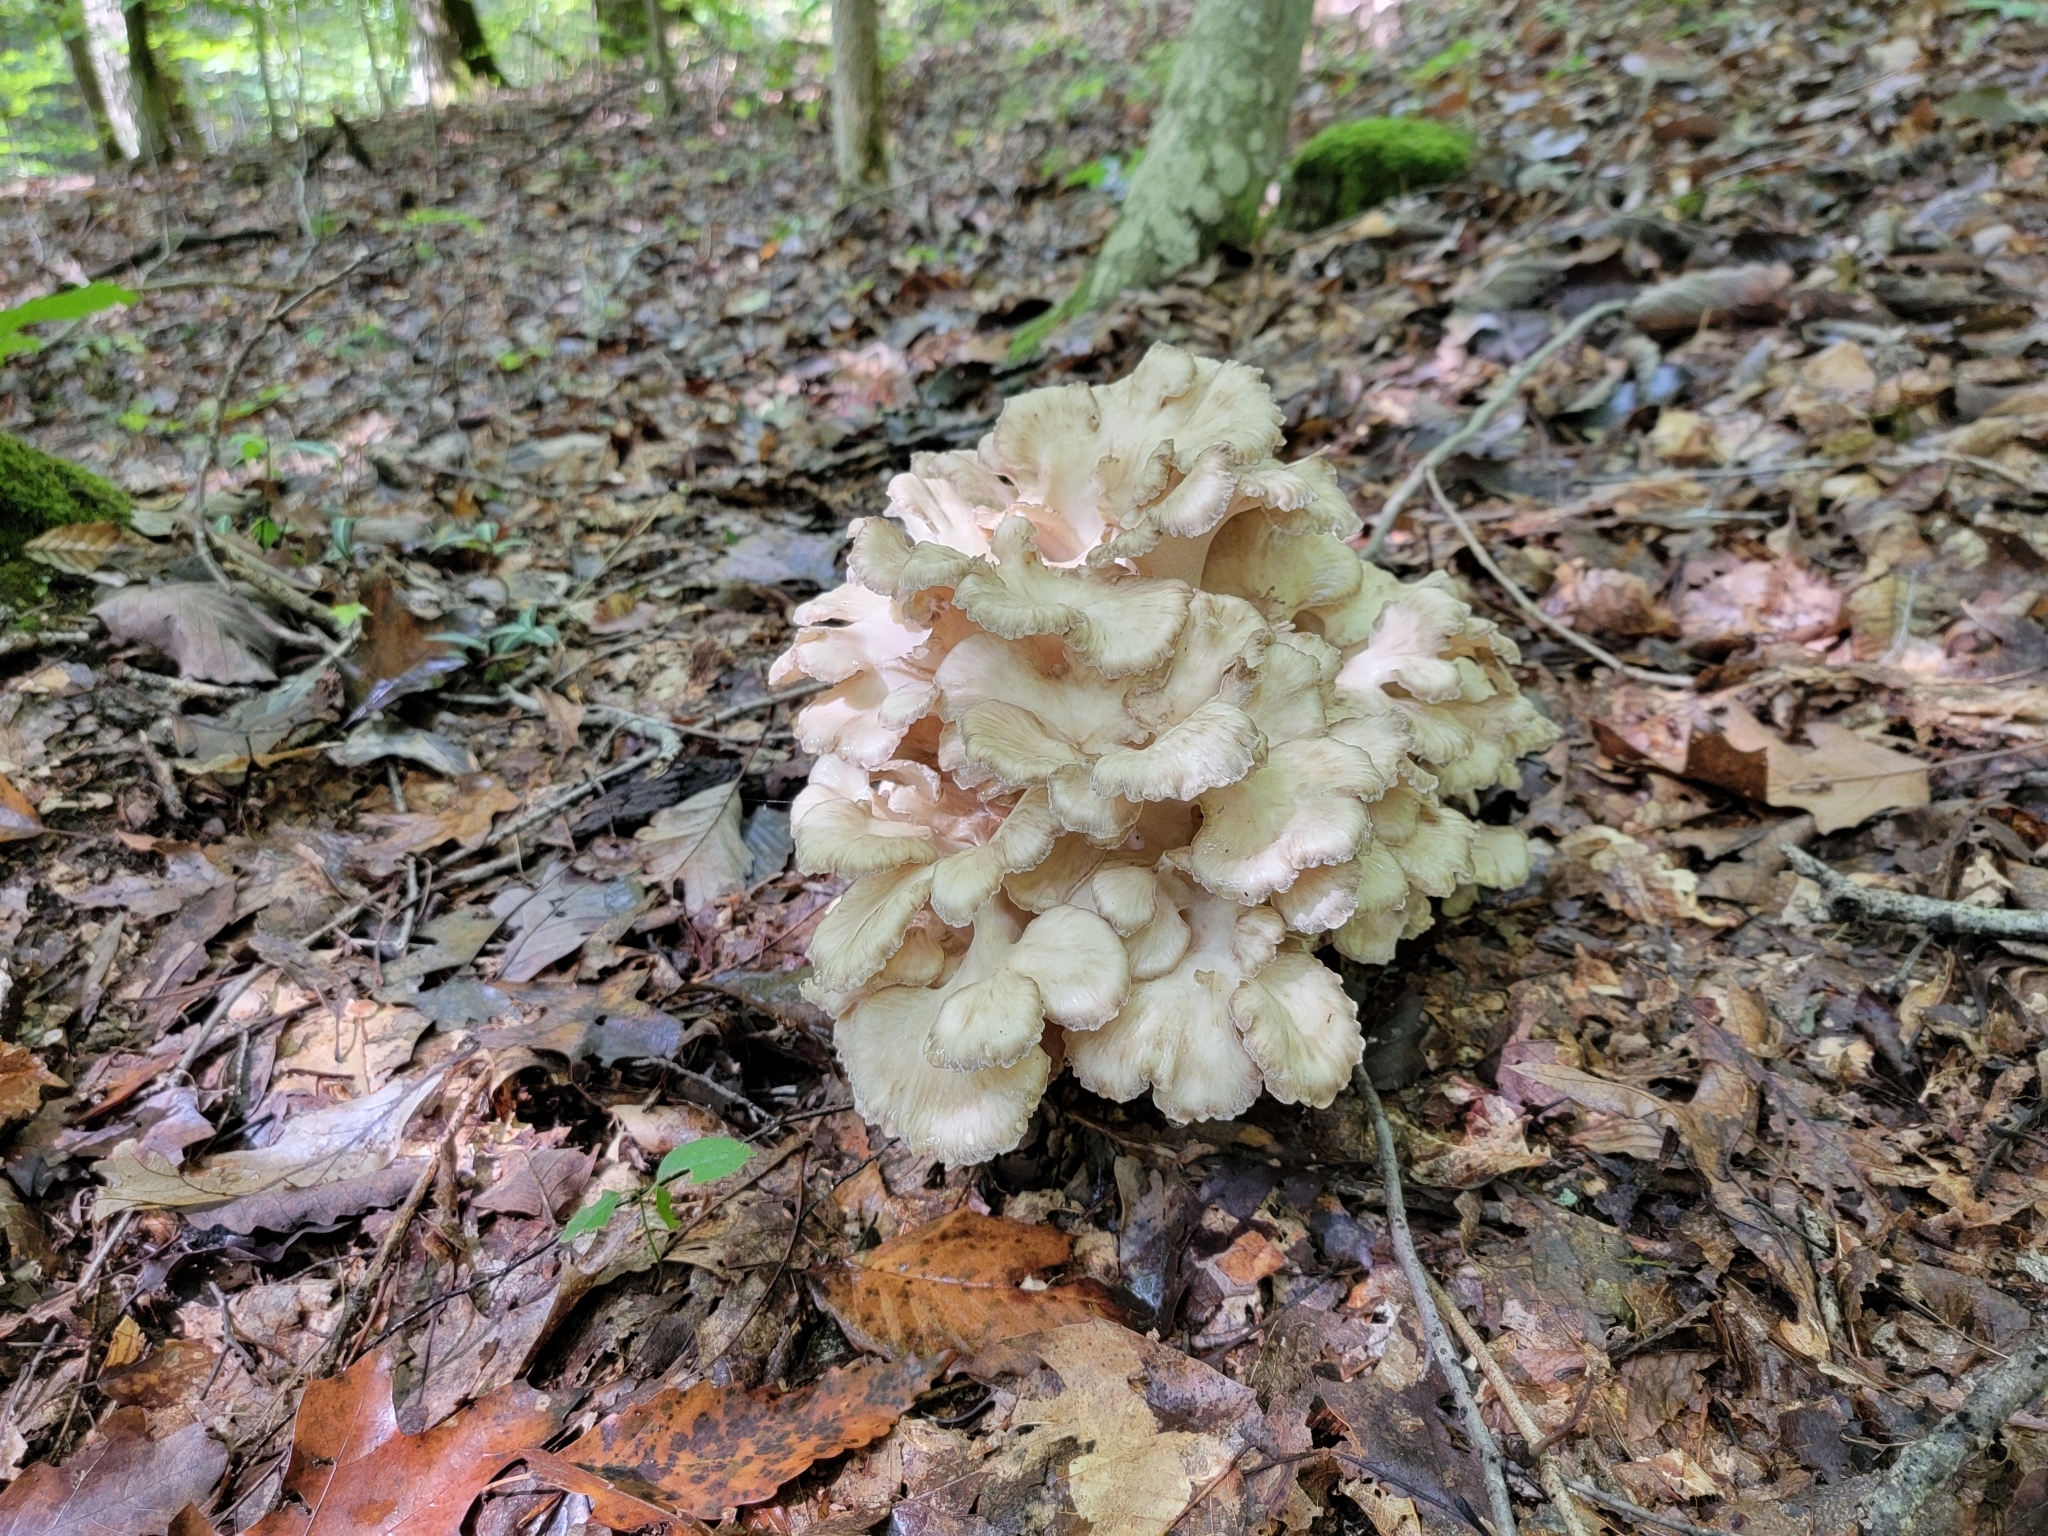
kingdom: Fungi
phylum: Basidiomycota
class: Agaricomycetes
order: Polyporales
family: Grifolaceae
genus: Grifola
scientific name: Grifola frondosa
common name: Hen of the woods
